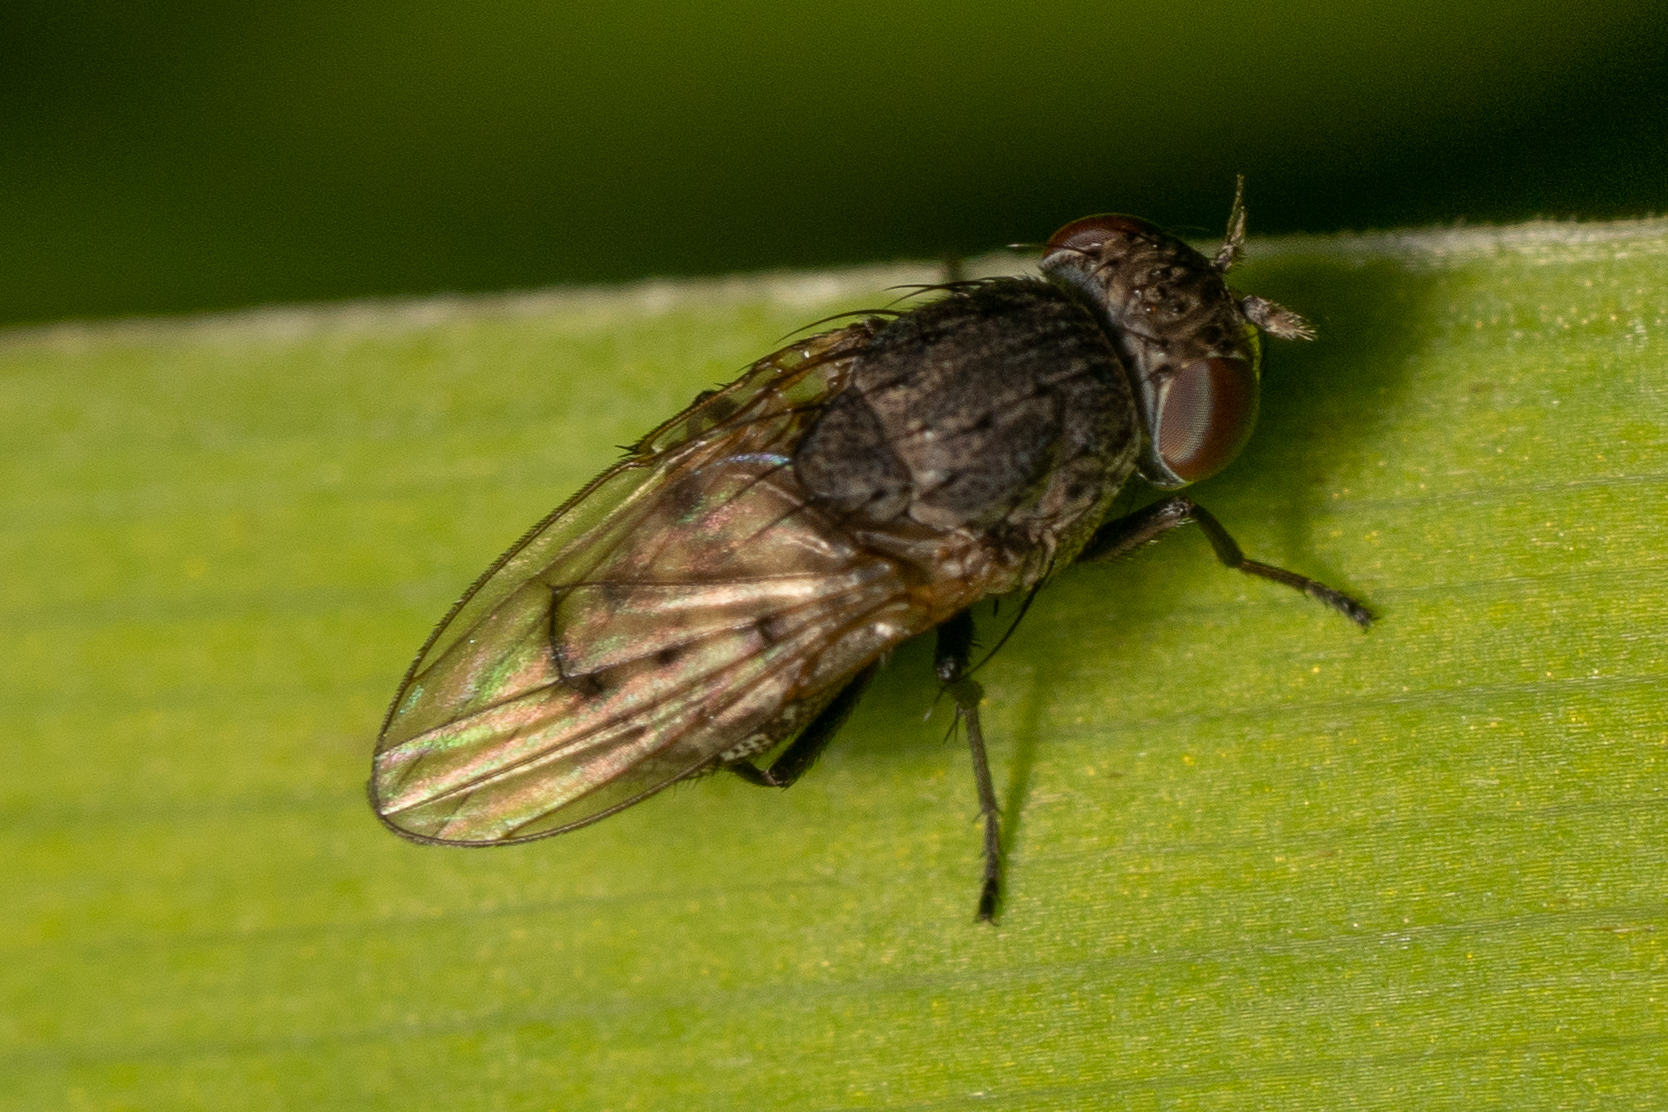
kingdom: Animalia
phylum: Arthropoda
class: Insecta
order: Diptera
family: Ephydridae
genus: Paralimna
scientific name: Paralimna punctipennis
